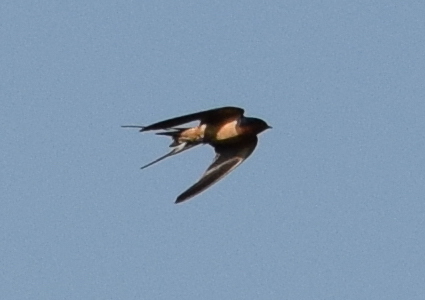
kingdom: Animalia
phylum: Chordata
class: Aves
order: Passeriformes
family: Hirundinidae
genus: Hirundo
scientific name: Hirundo rustica
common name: Barn swallow
